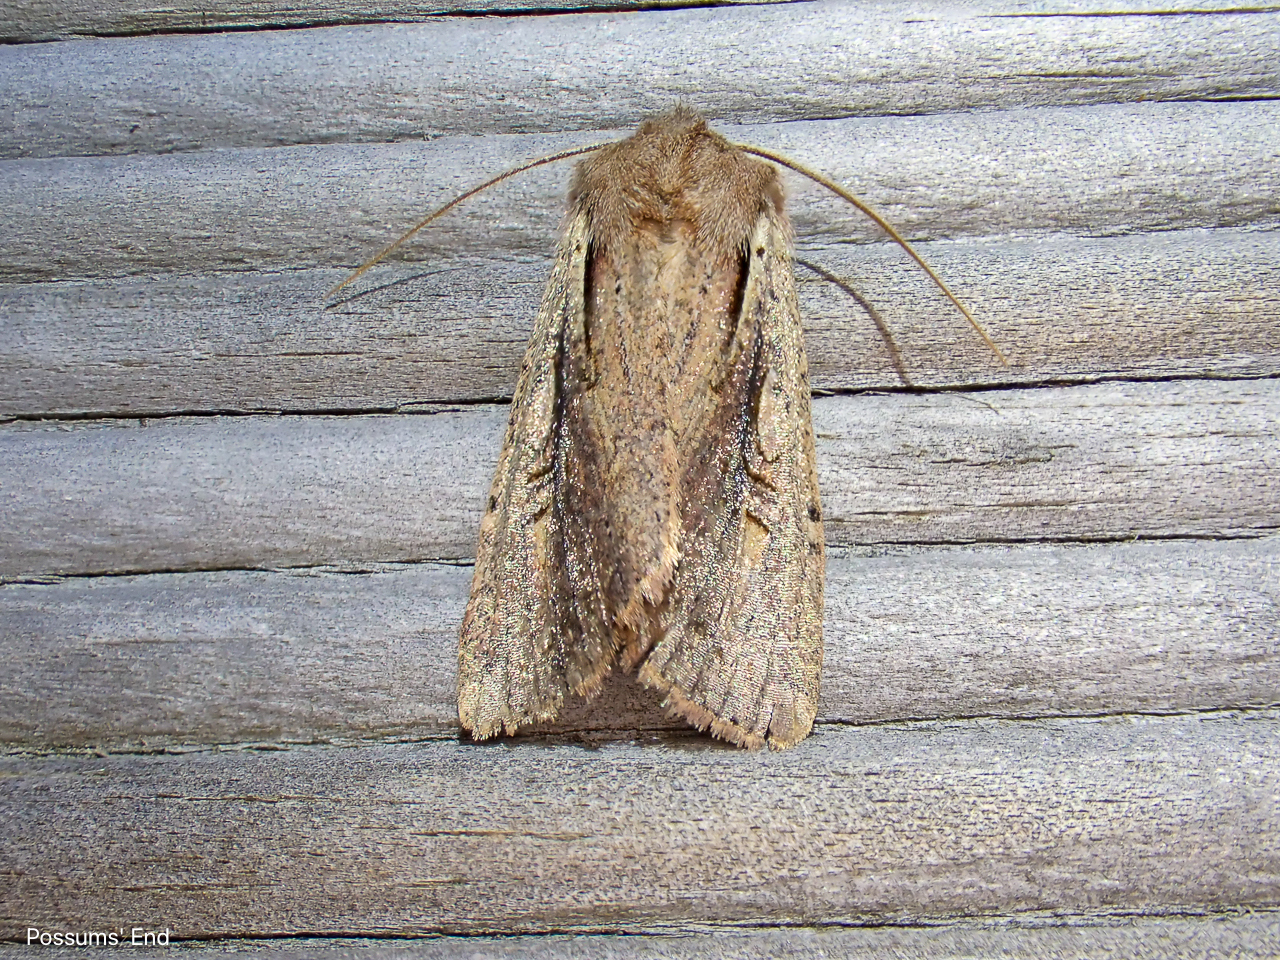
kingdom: Animalia
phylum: Arthropoda
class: Insecta
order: Lepidoptera
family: Noctuidae
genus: Ichneutica
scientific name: Ichneutica atristriga
